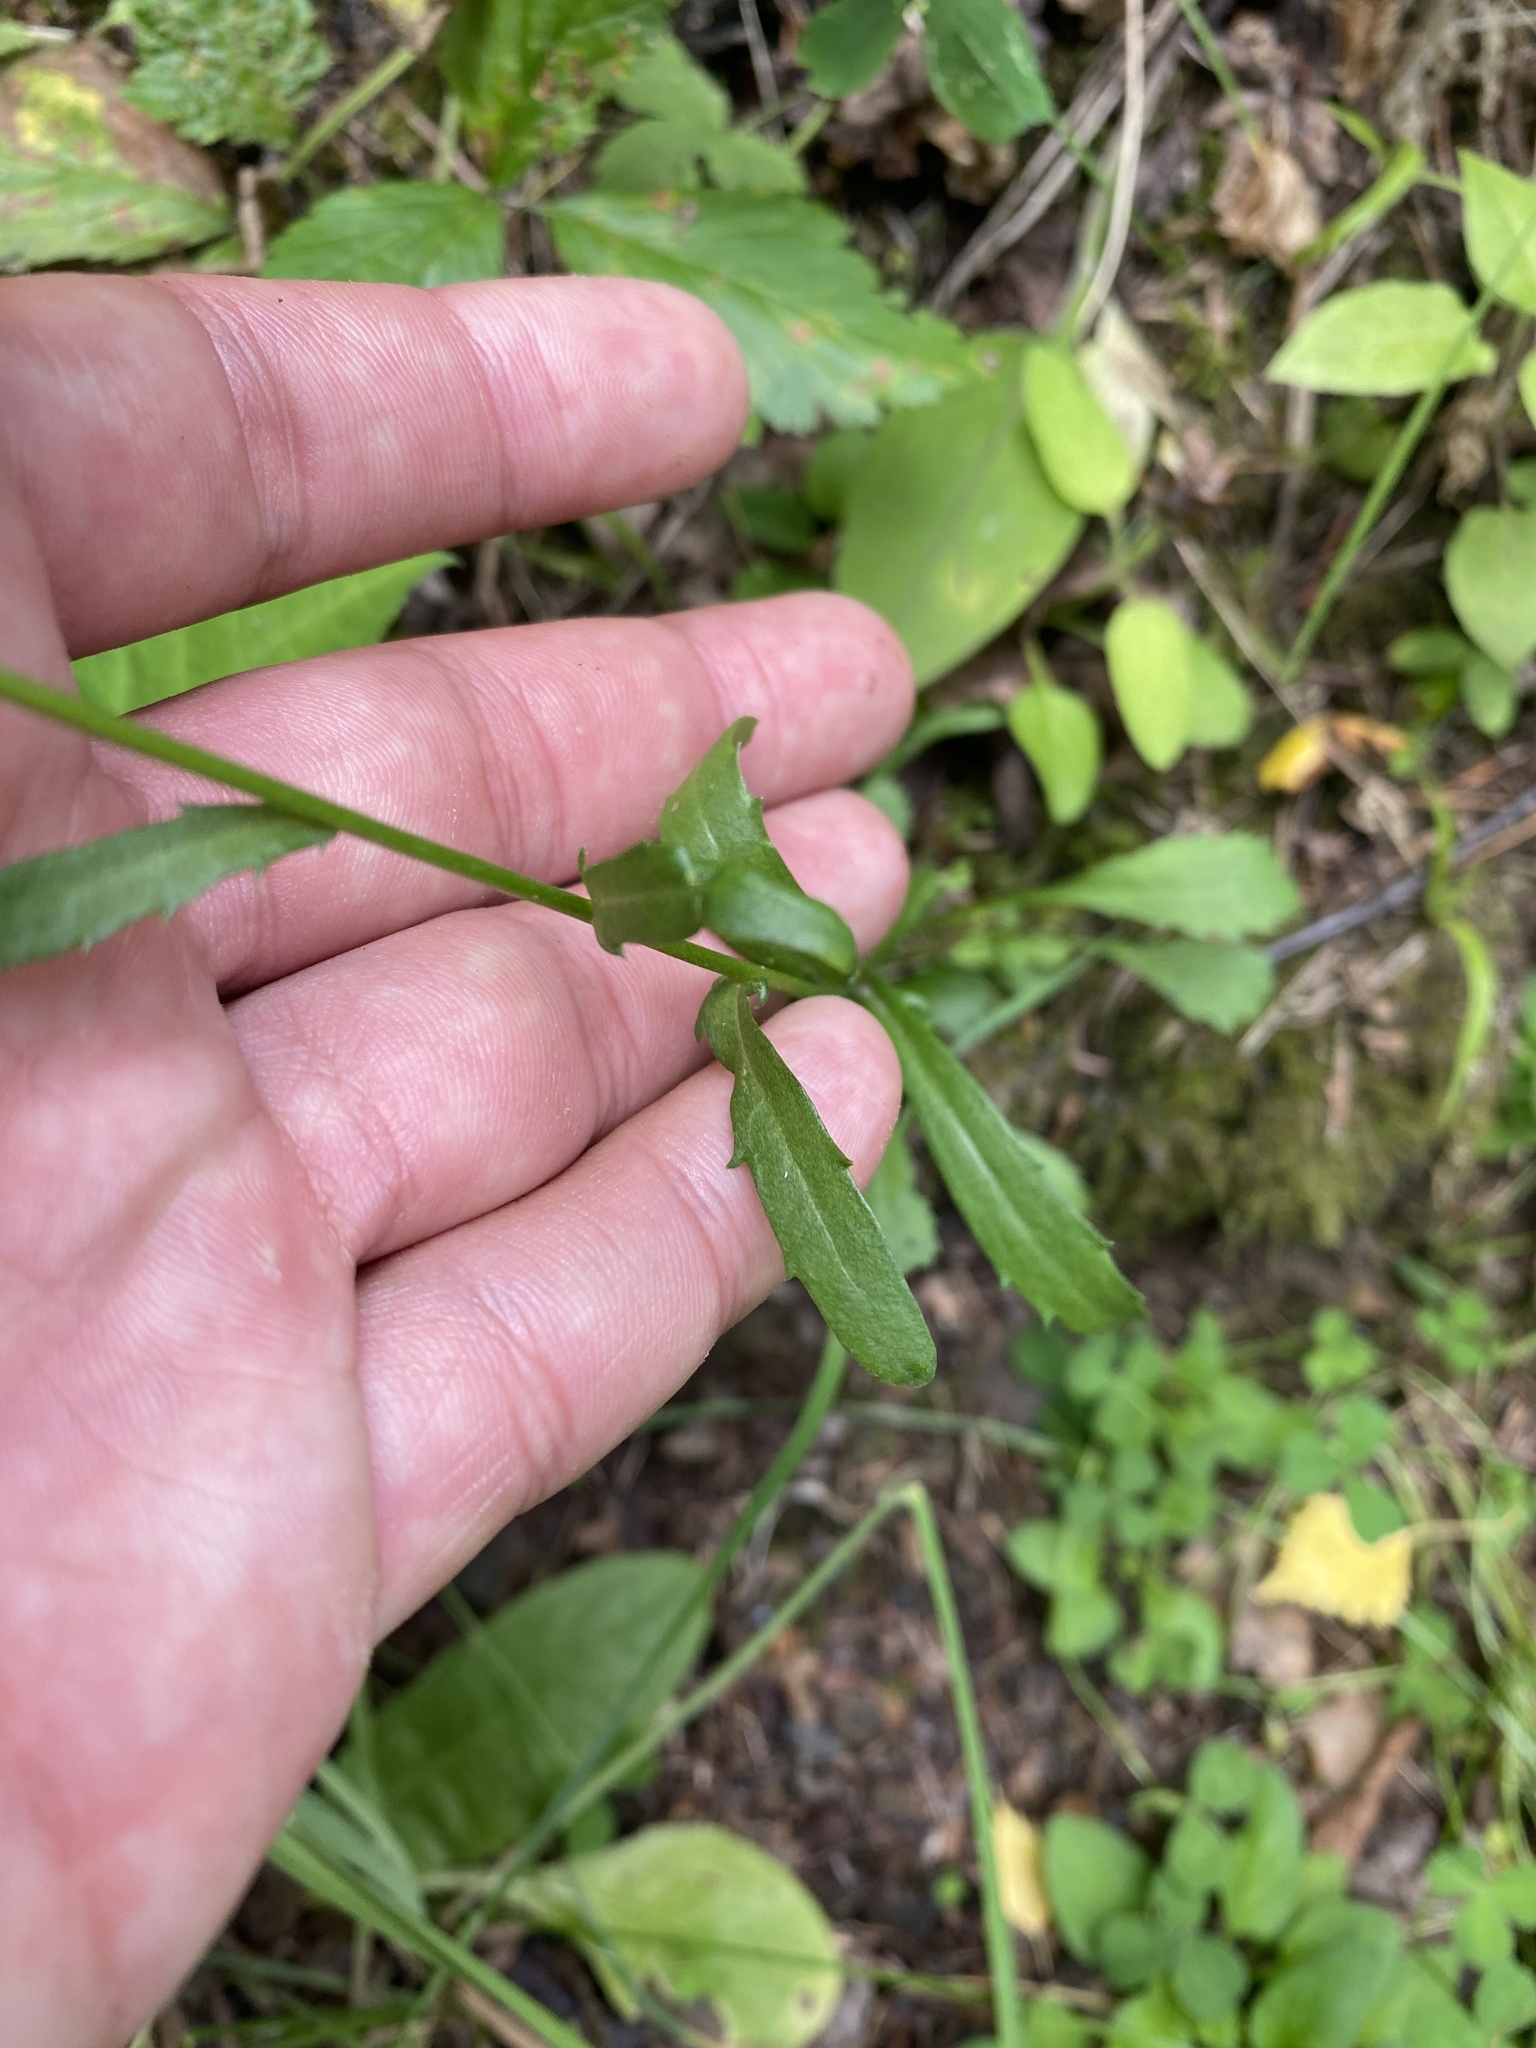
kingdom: Plantae
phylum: Tracheophyta
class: Magnoliopsida
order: Asterales
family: Asteraceae
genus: Leucanthemum
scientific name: Leucanthemum ircutianum
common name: Daisy
